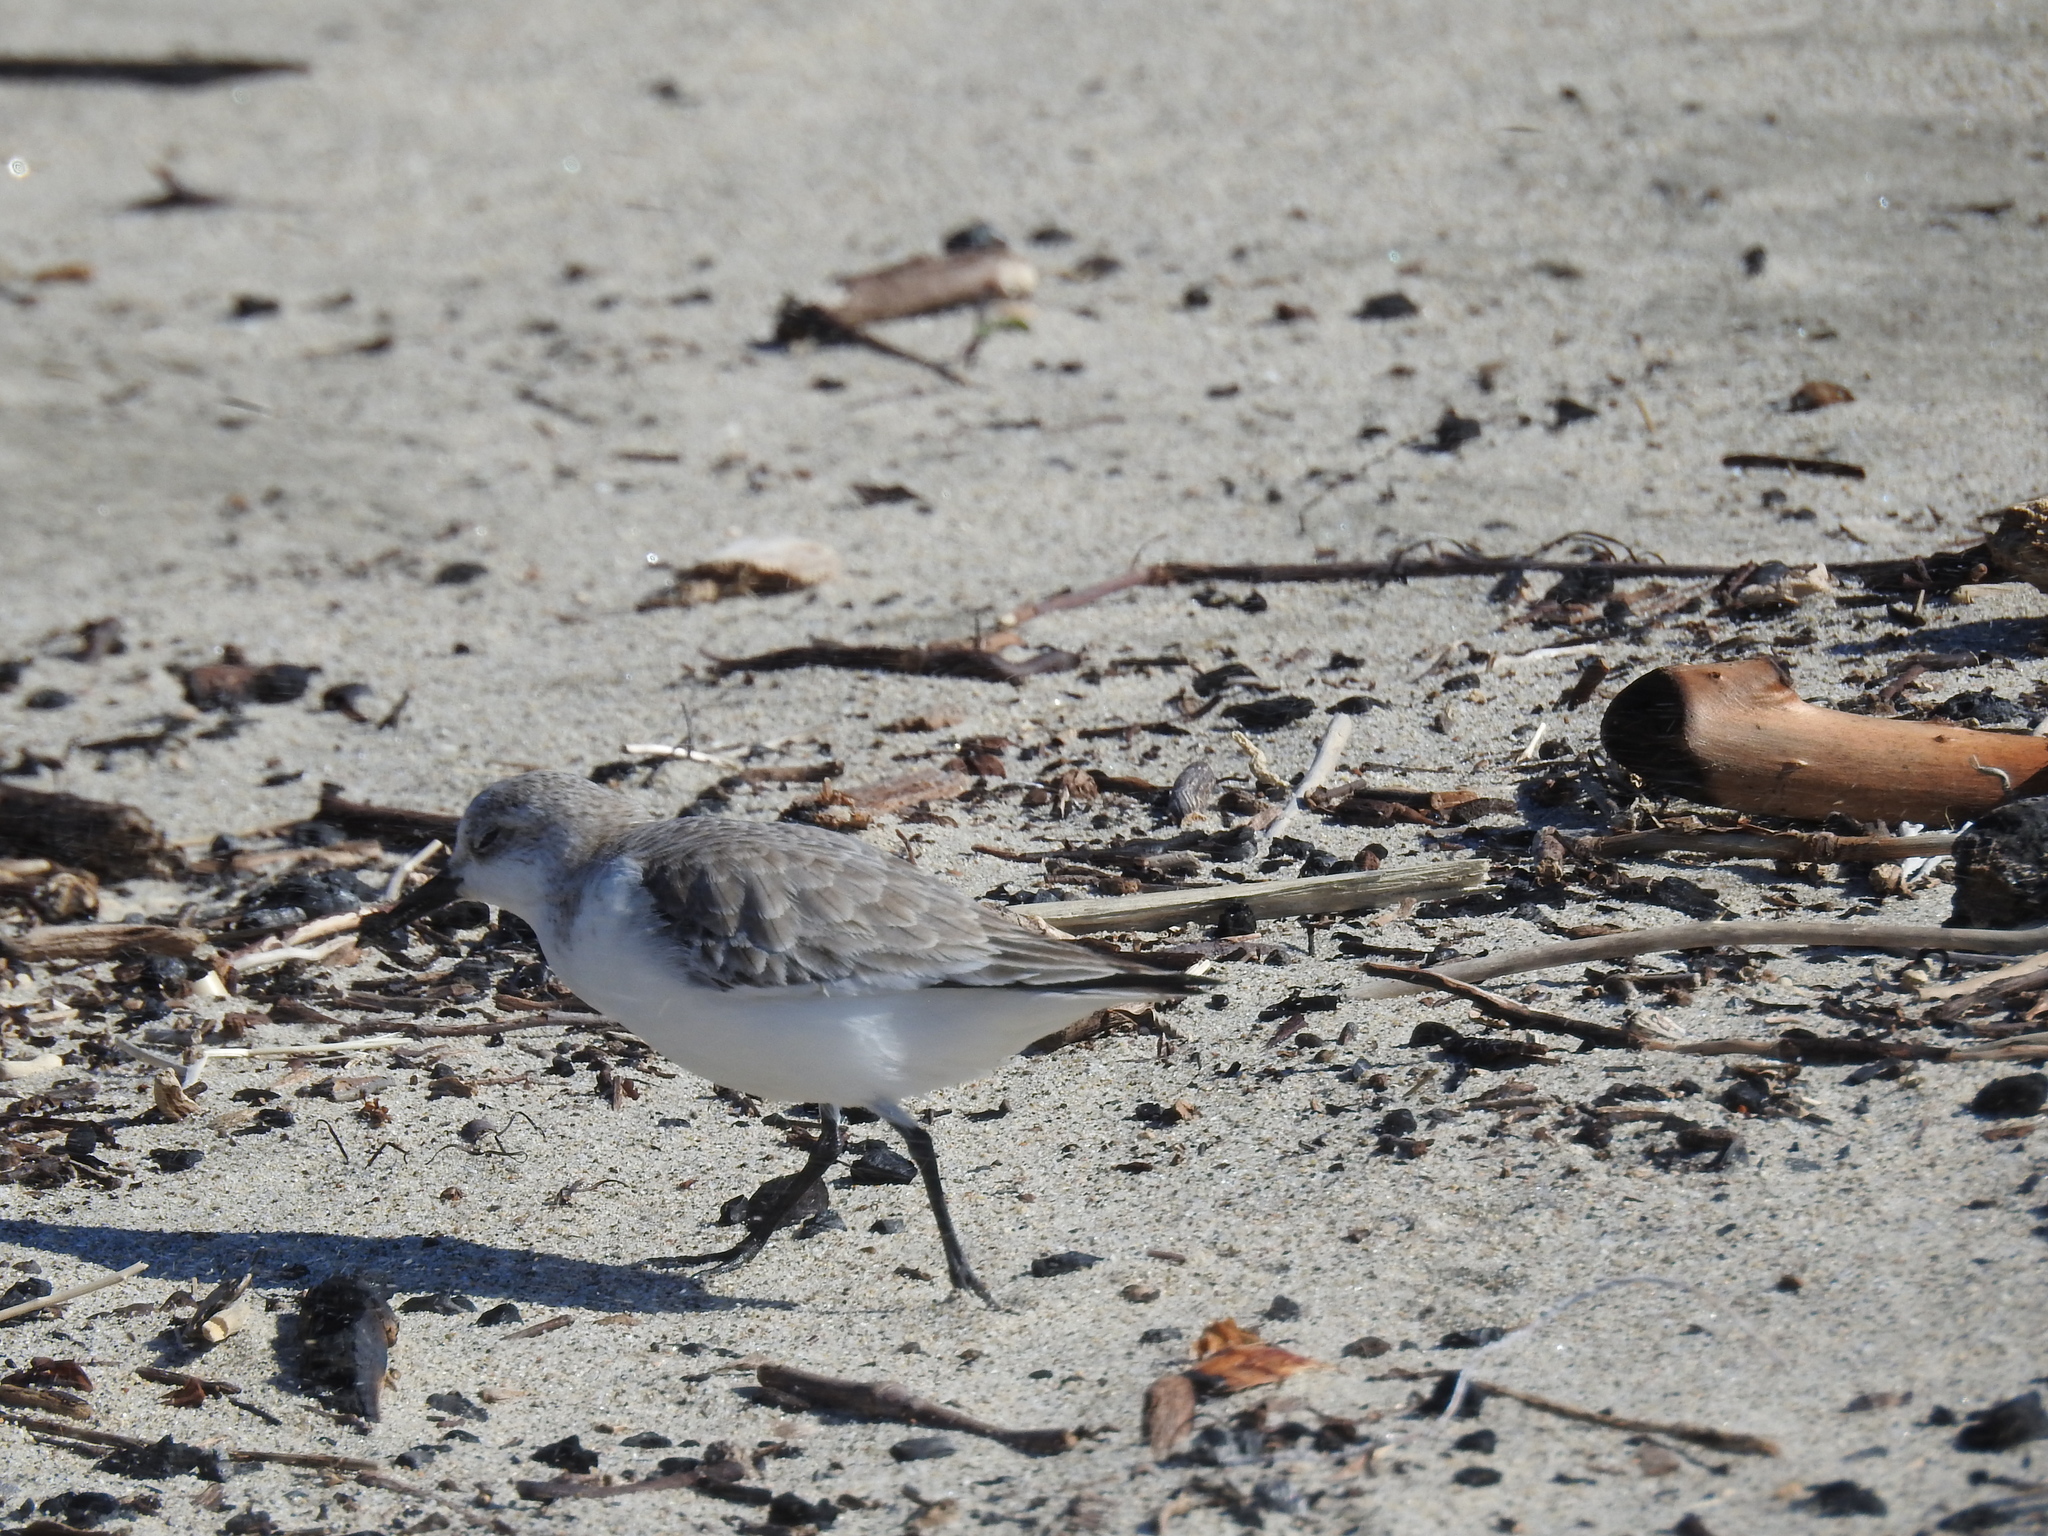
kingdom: Animalia
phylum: Chordata
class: Aves
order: Charadriiformes
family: Scolopacidae
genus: Calidris
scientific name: Calidris alba
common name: Sanderling
